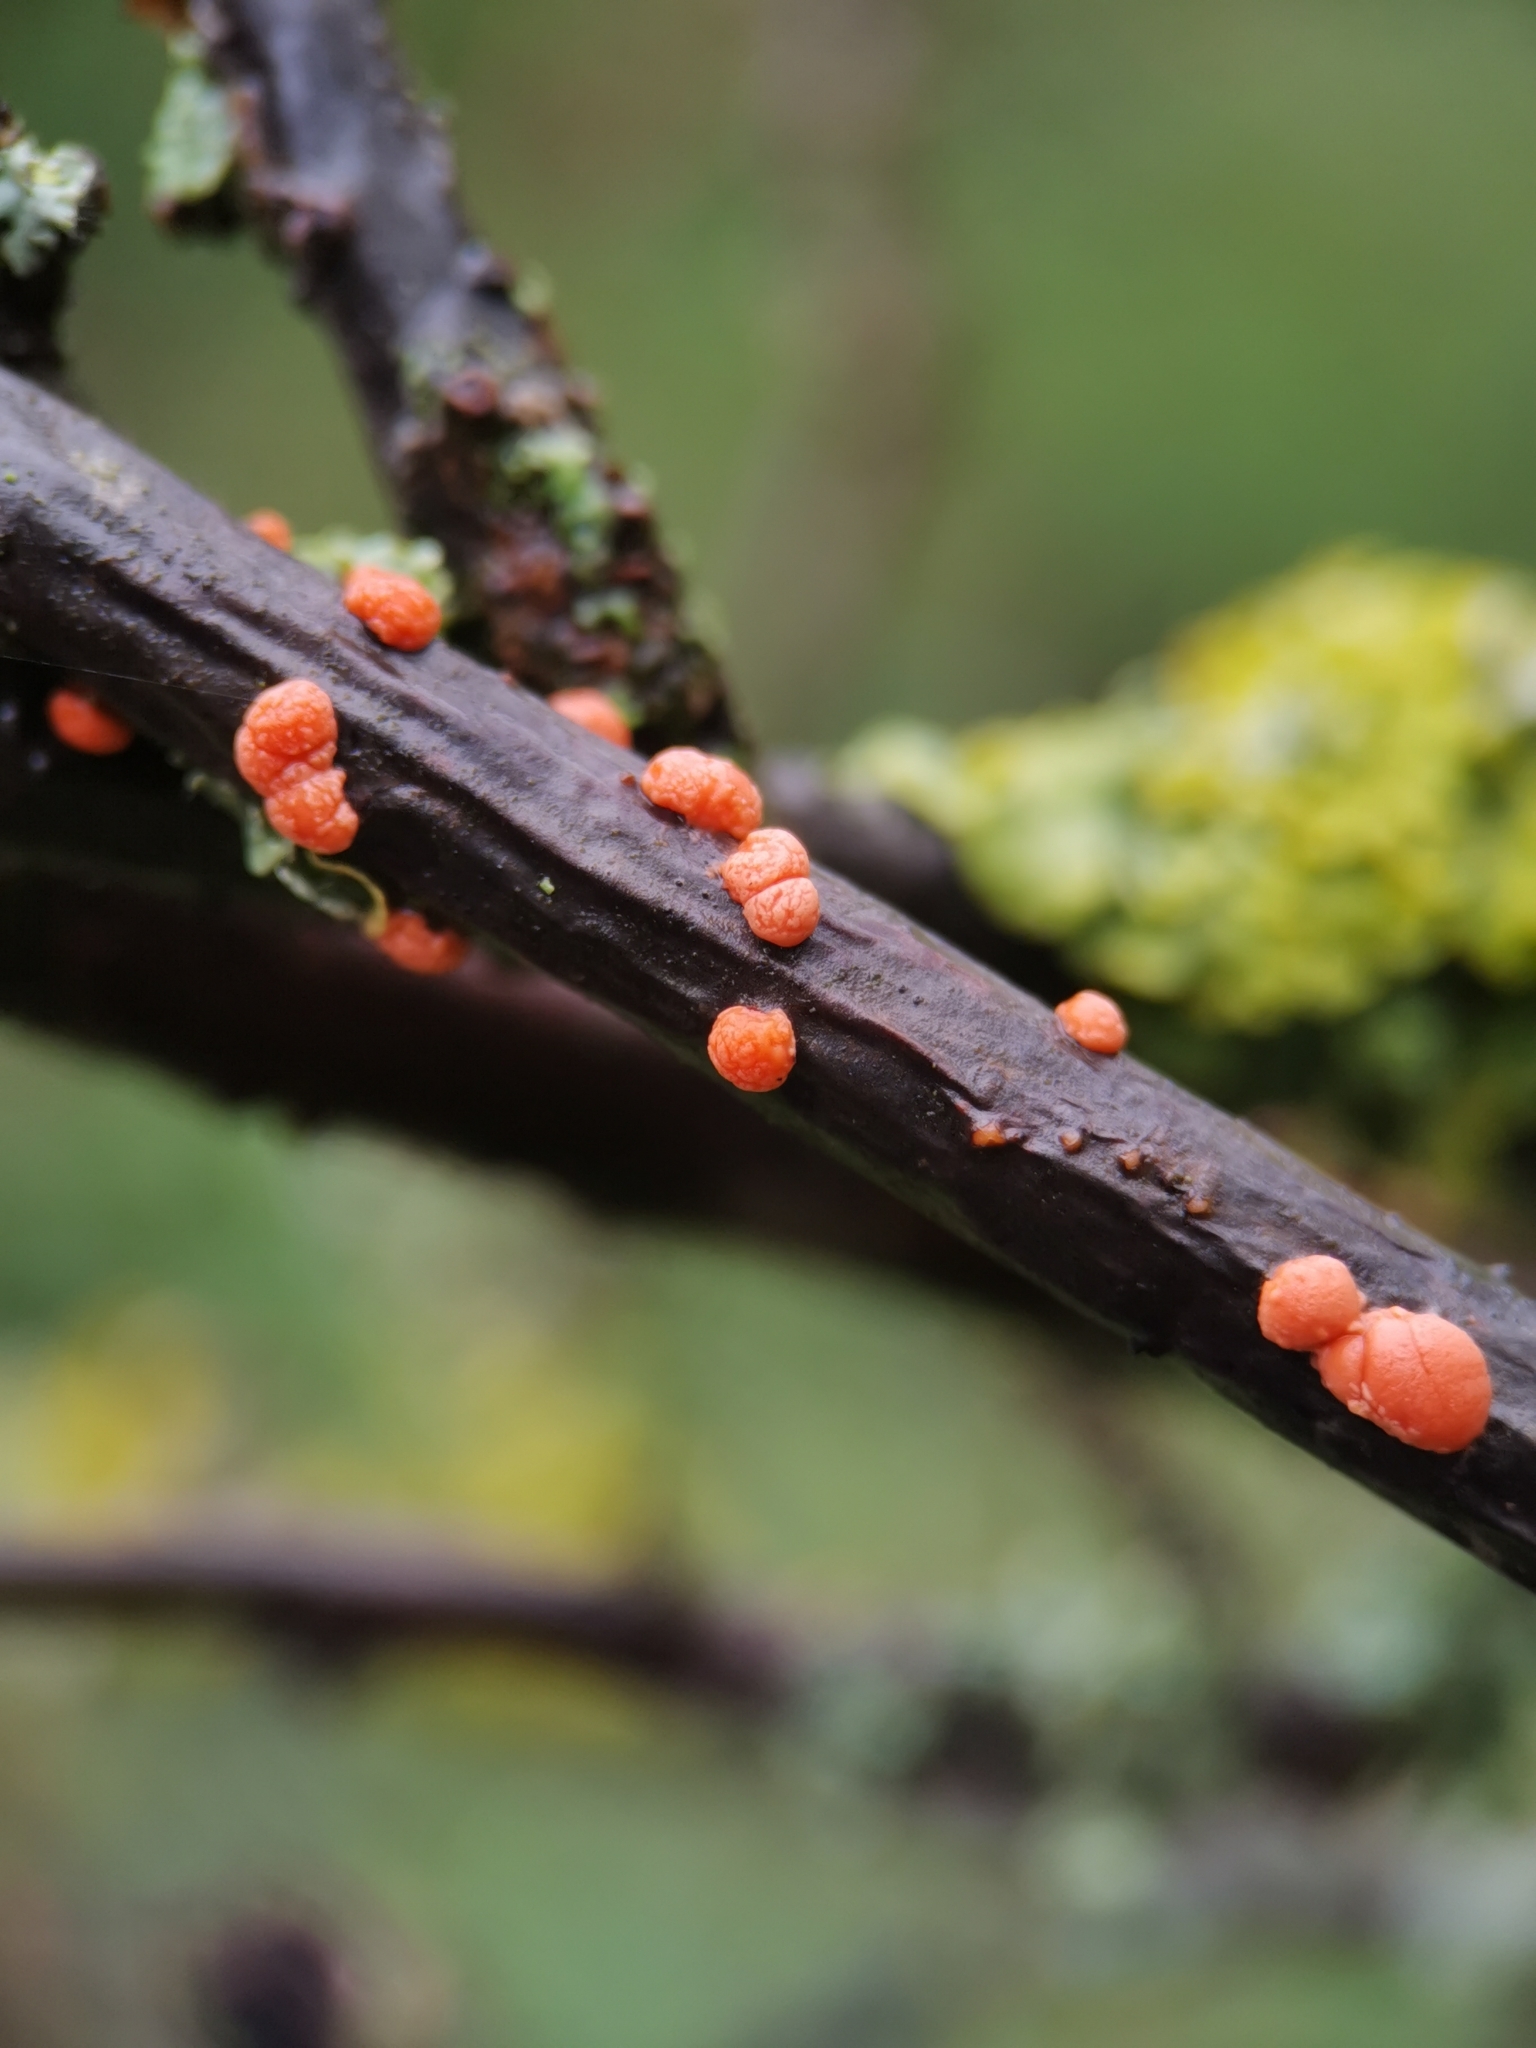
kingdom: Fungi
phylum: Ascomycota
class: Sordariomycetes
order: Hypocreales
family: Nectriaceae
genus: Nectria
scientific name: Nectria cinnabarina
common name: Coral spot
